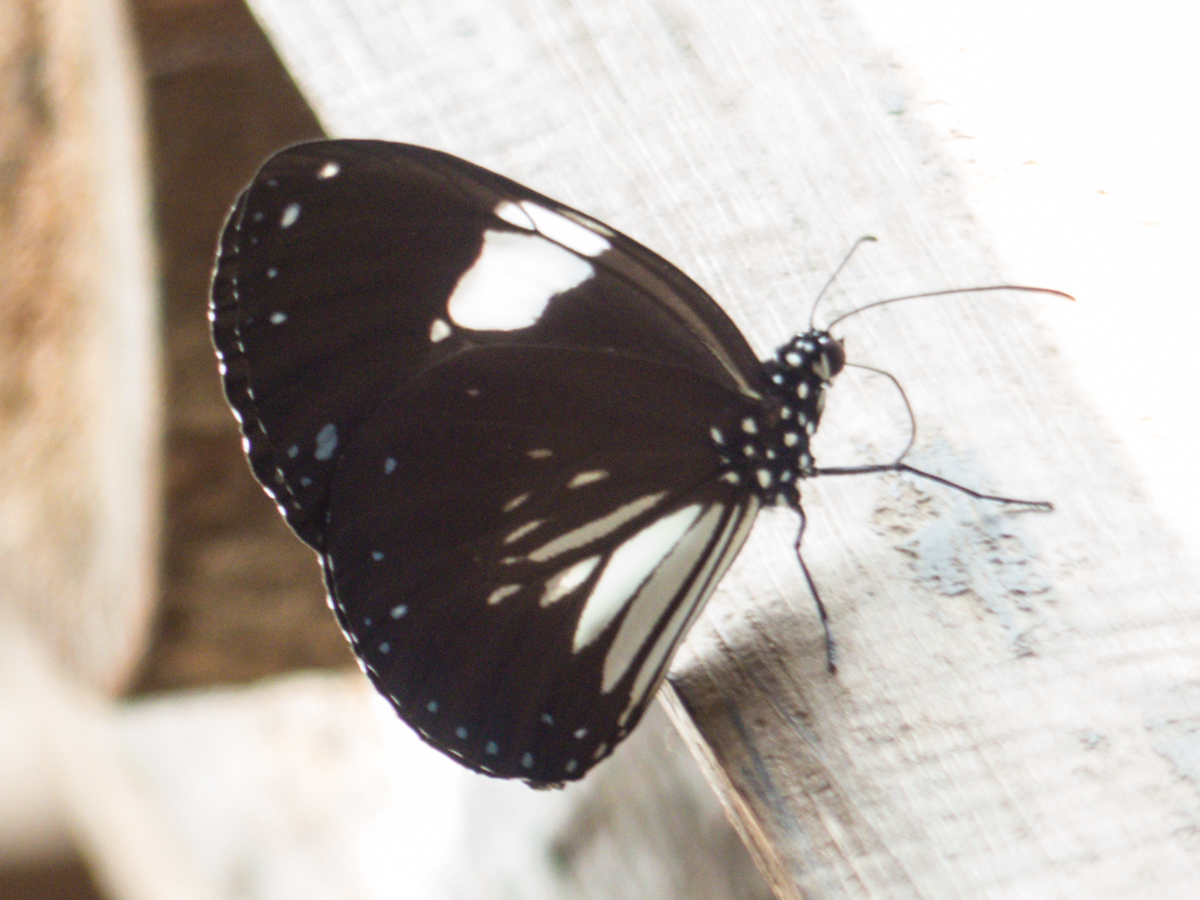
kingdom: Animalia
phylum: Arthropoda
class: Insecta
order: Lepidoptera
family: Nymphalidae
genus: Euploea
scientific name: Euploea radamanthus
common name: Magpie crow butterfly
